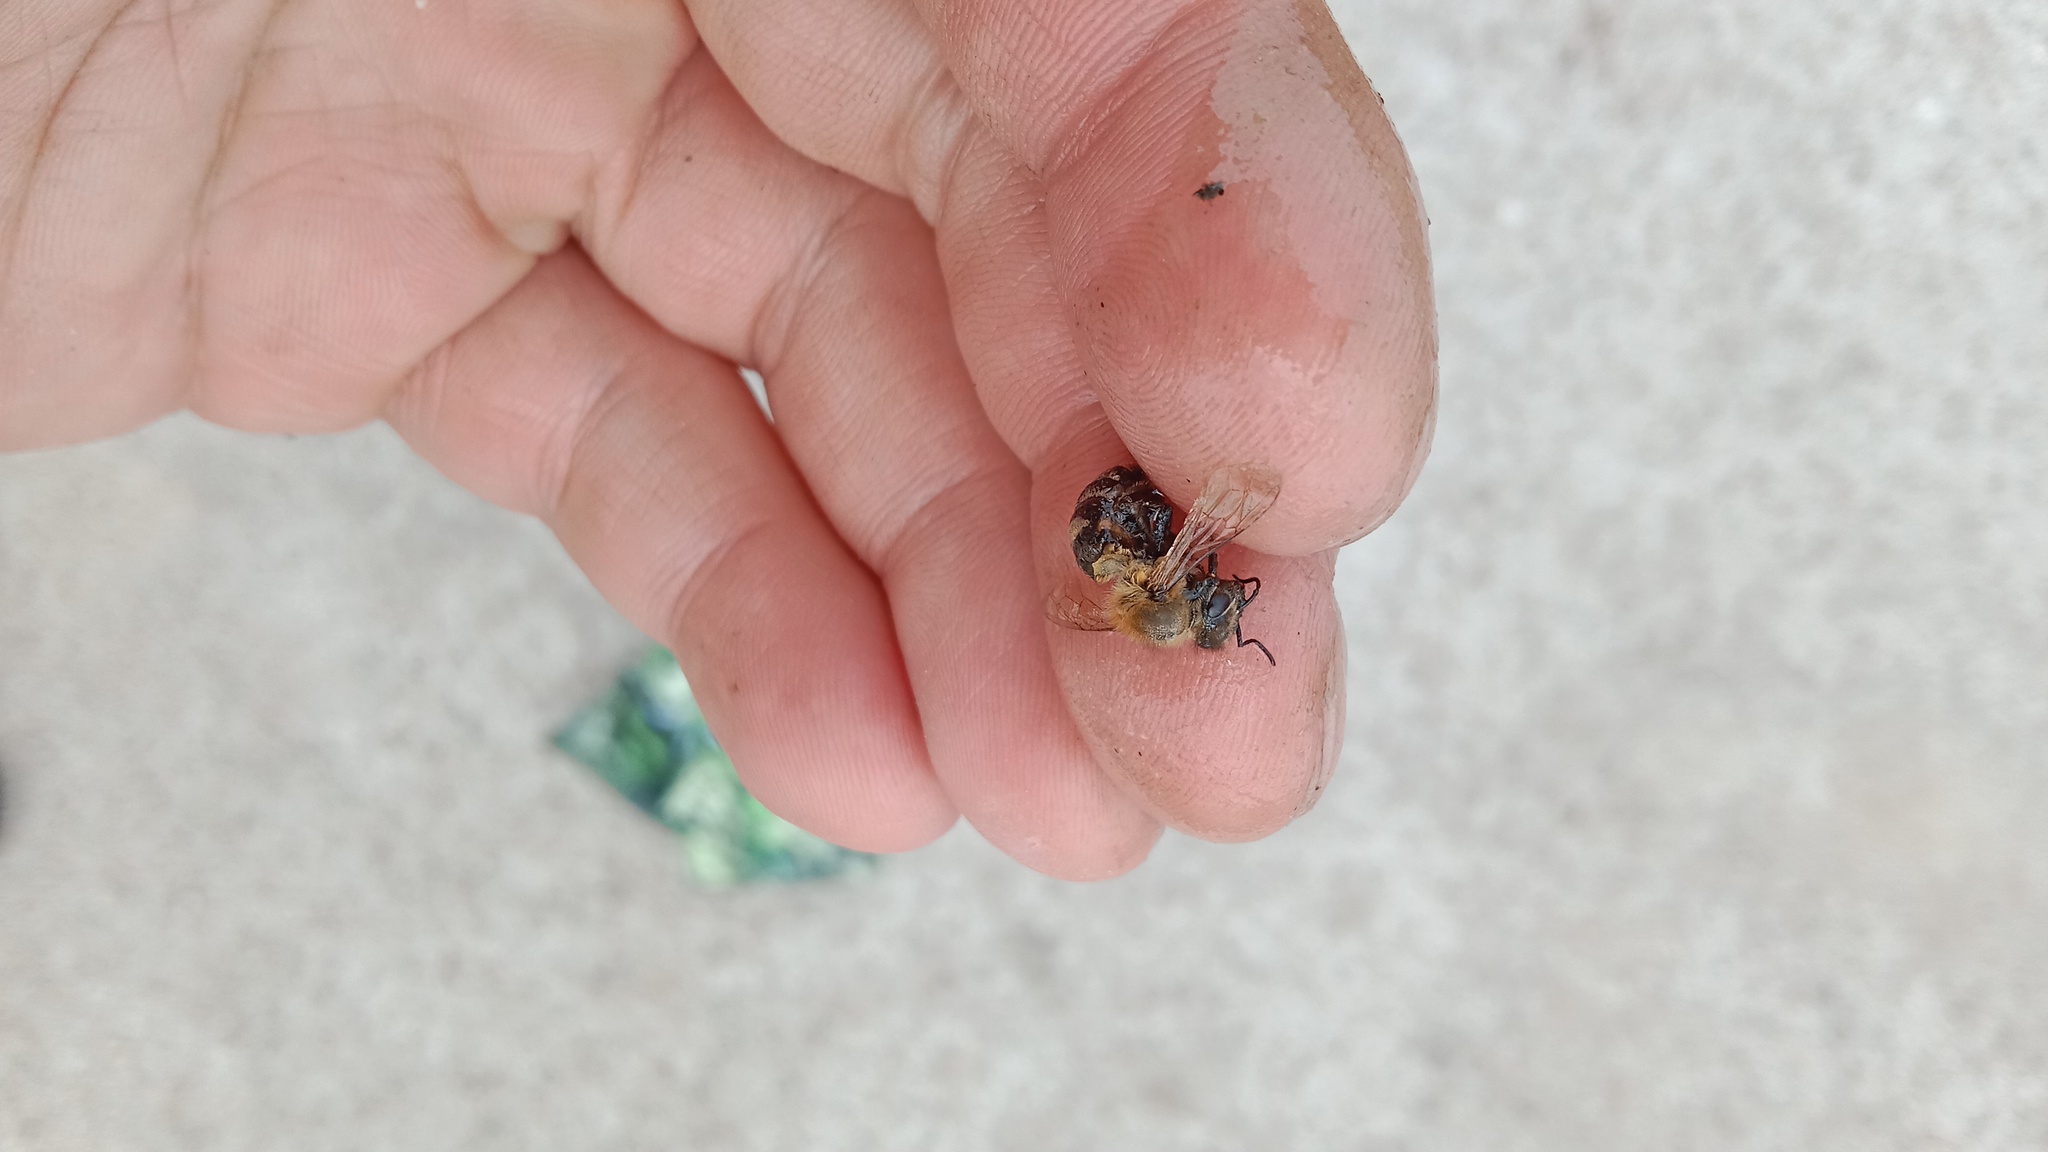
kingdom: Animalia
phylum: Arthropoda
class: Insecta
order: Hymenoptera
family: Apidae
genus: Apis
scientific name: Apis mellifera
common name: Honey bee
